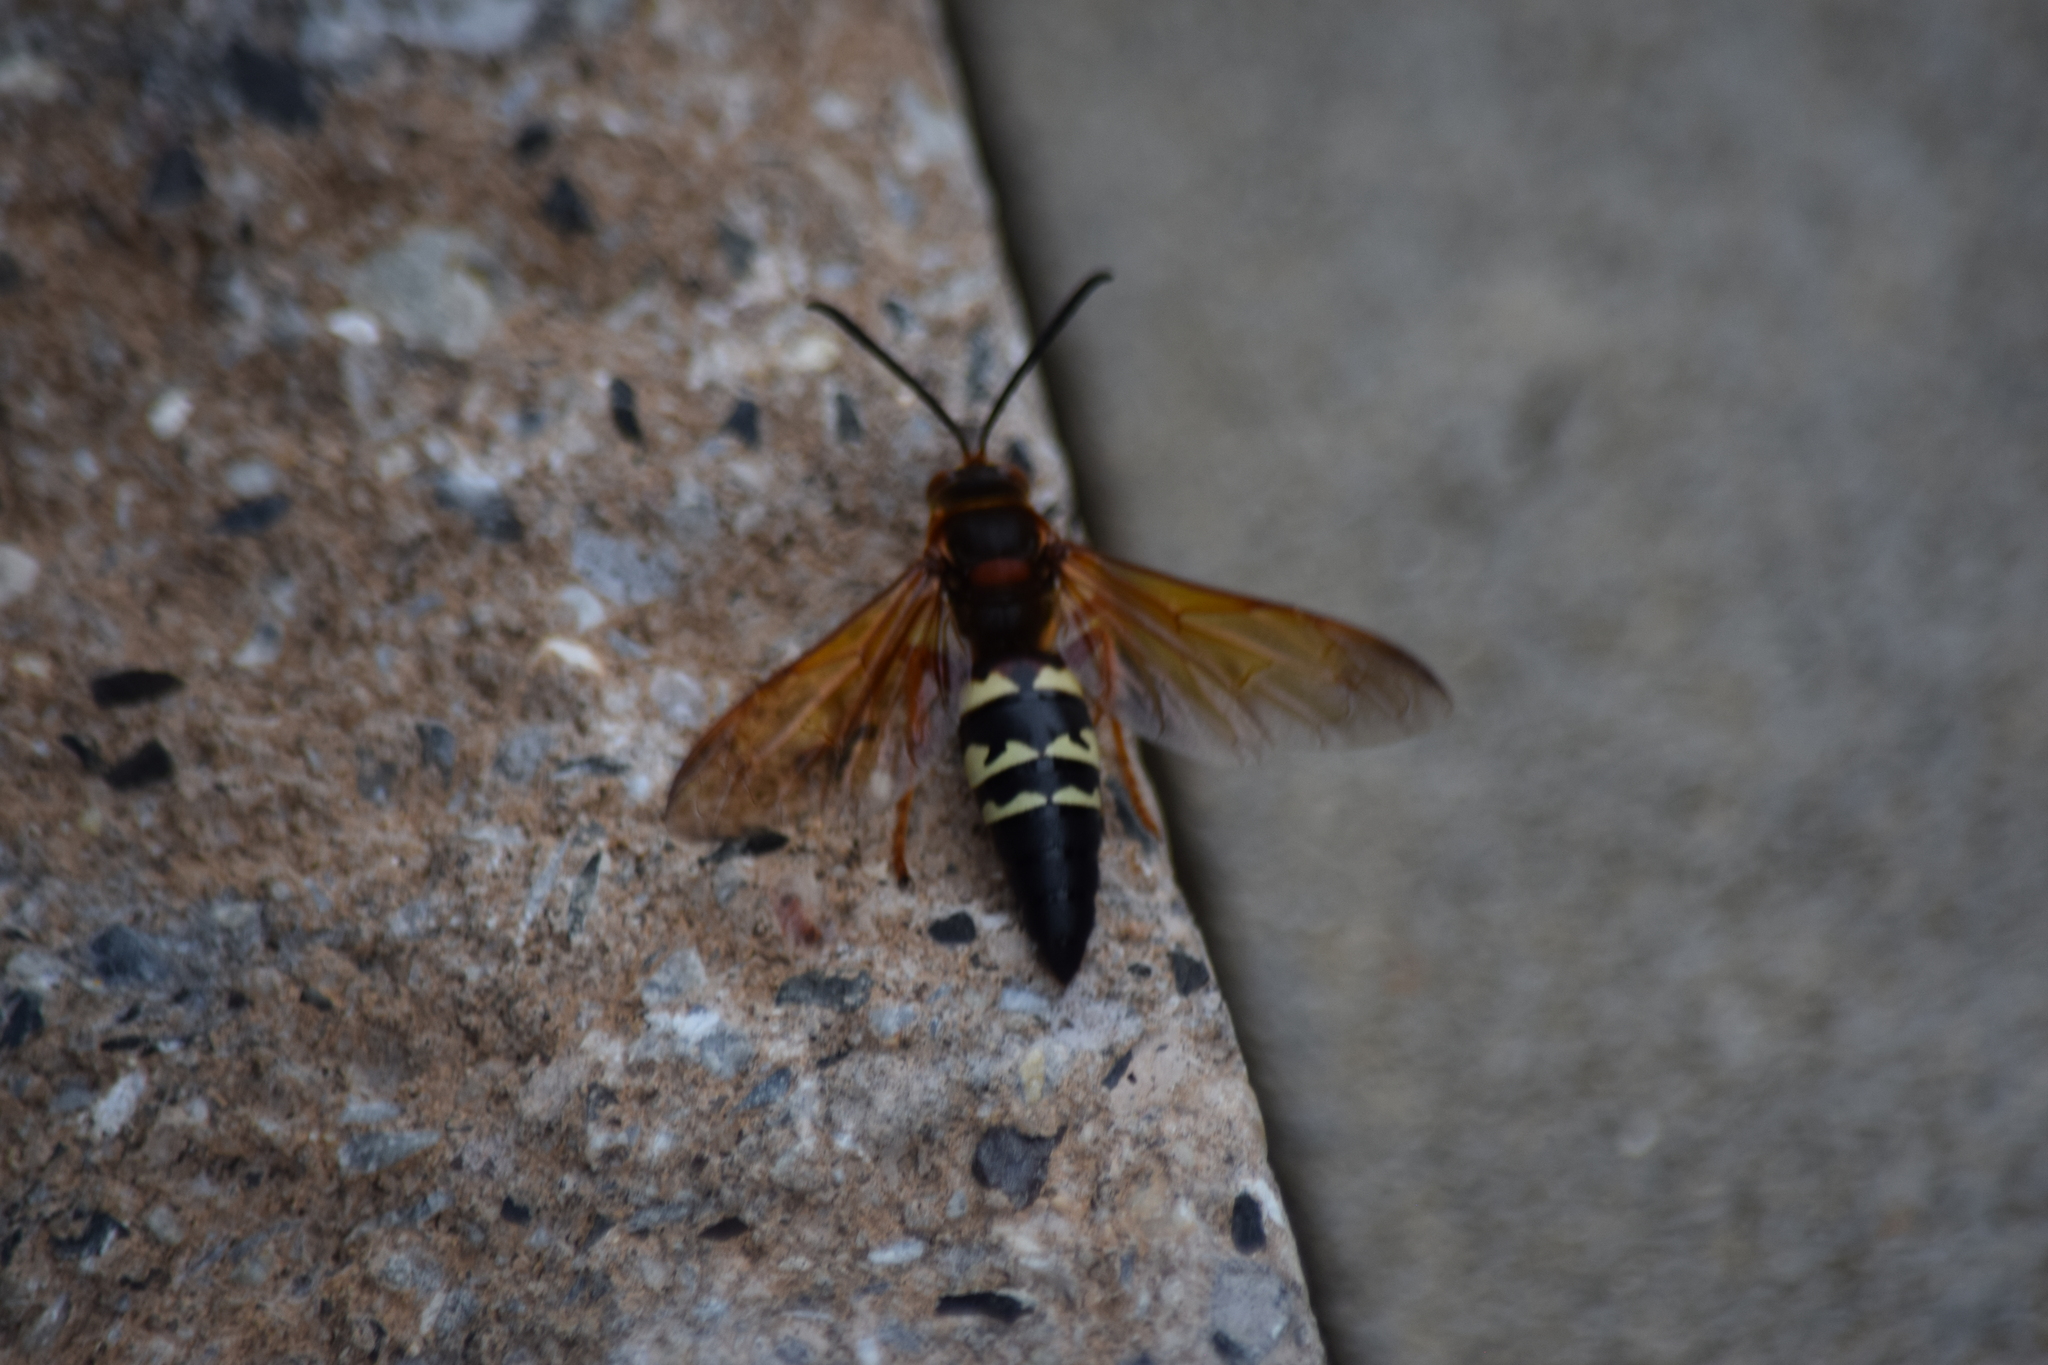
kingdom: Animalia
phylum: Arthropoda
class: Insecta
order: Hymenoptera
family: Crabronidae
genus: Sphecius
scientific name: Sphecius speciosus
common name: Cicada killer
